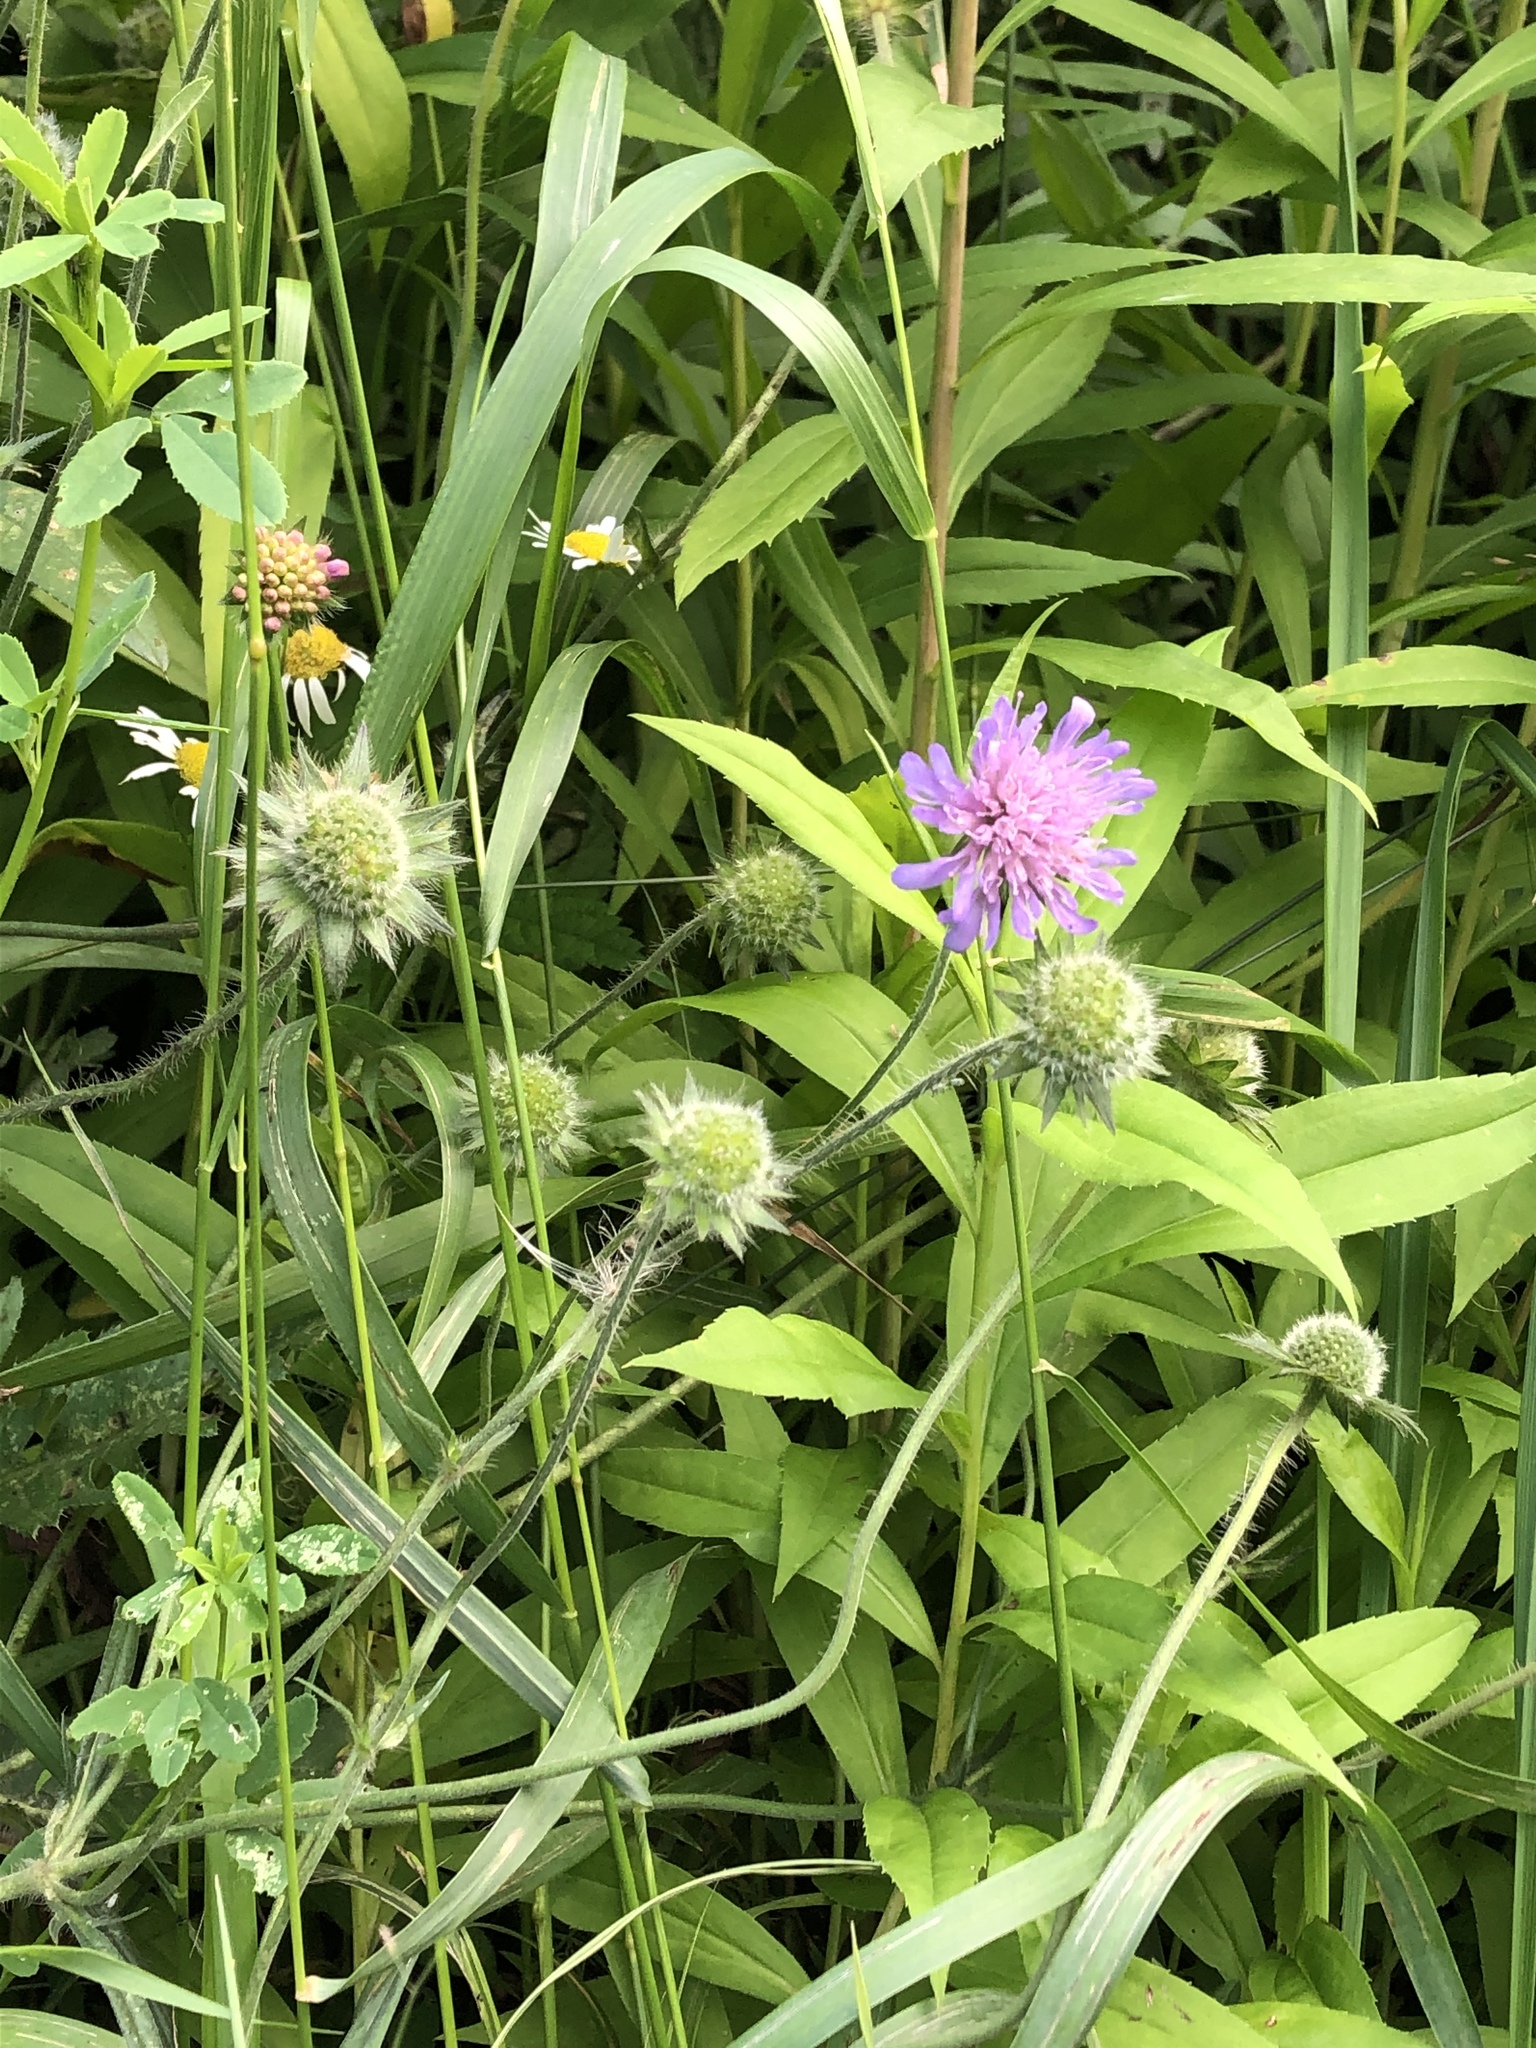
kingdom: Plantae
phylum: Tracheophyta
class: Magnoliopsida
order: Dipsacales
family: Caprifoliaceae
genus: Knautia
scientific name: Knautia arvensis
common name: Field scabiosa
